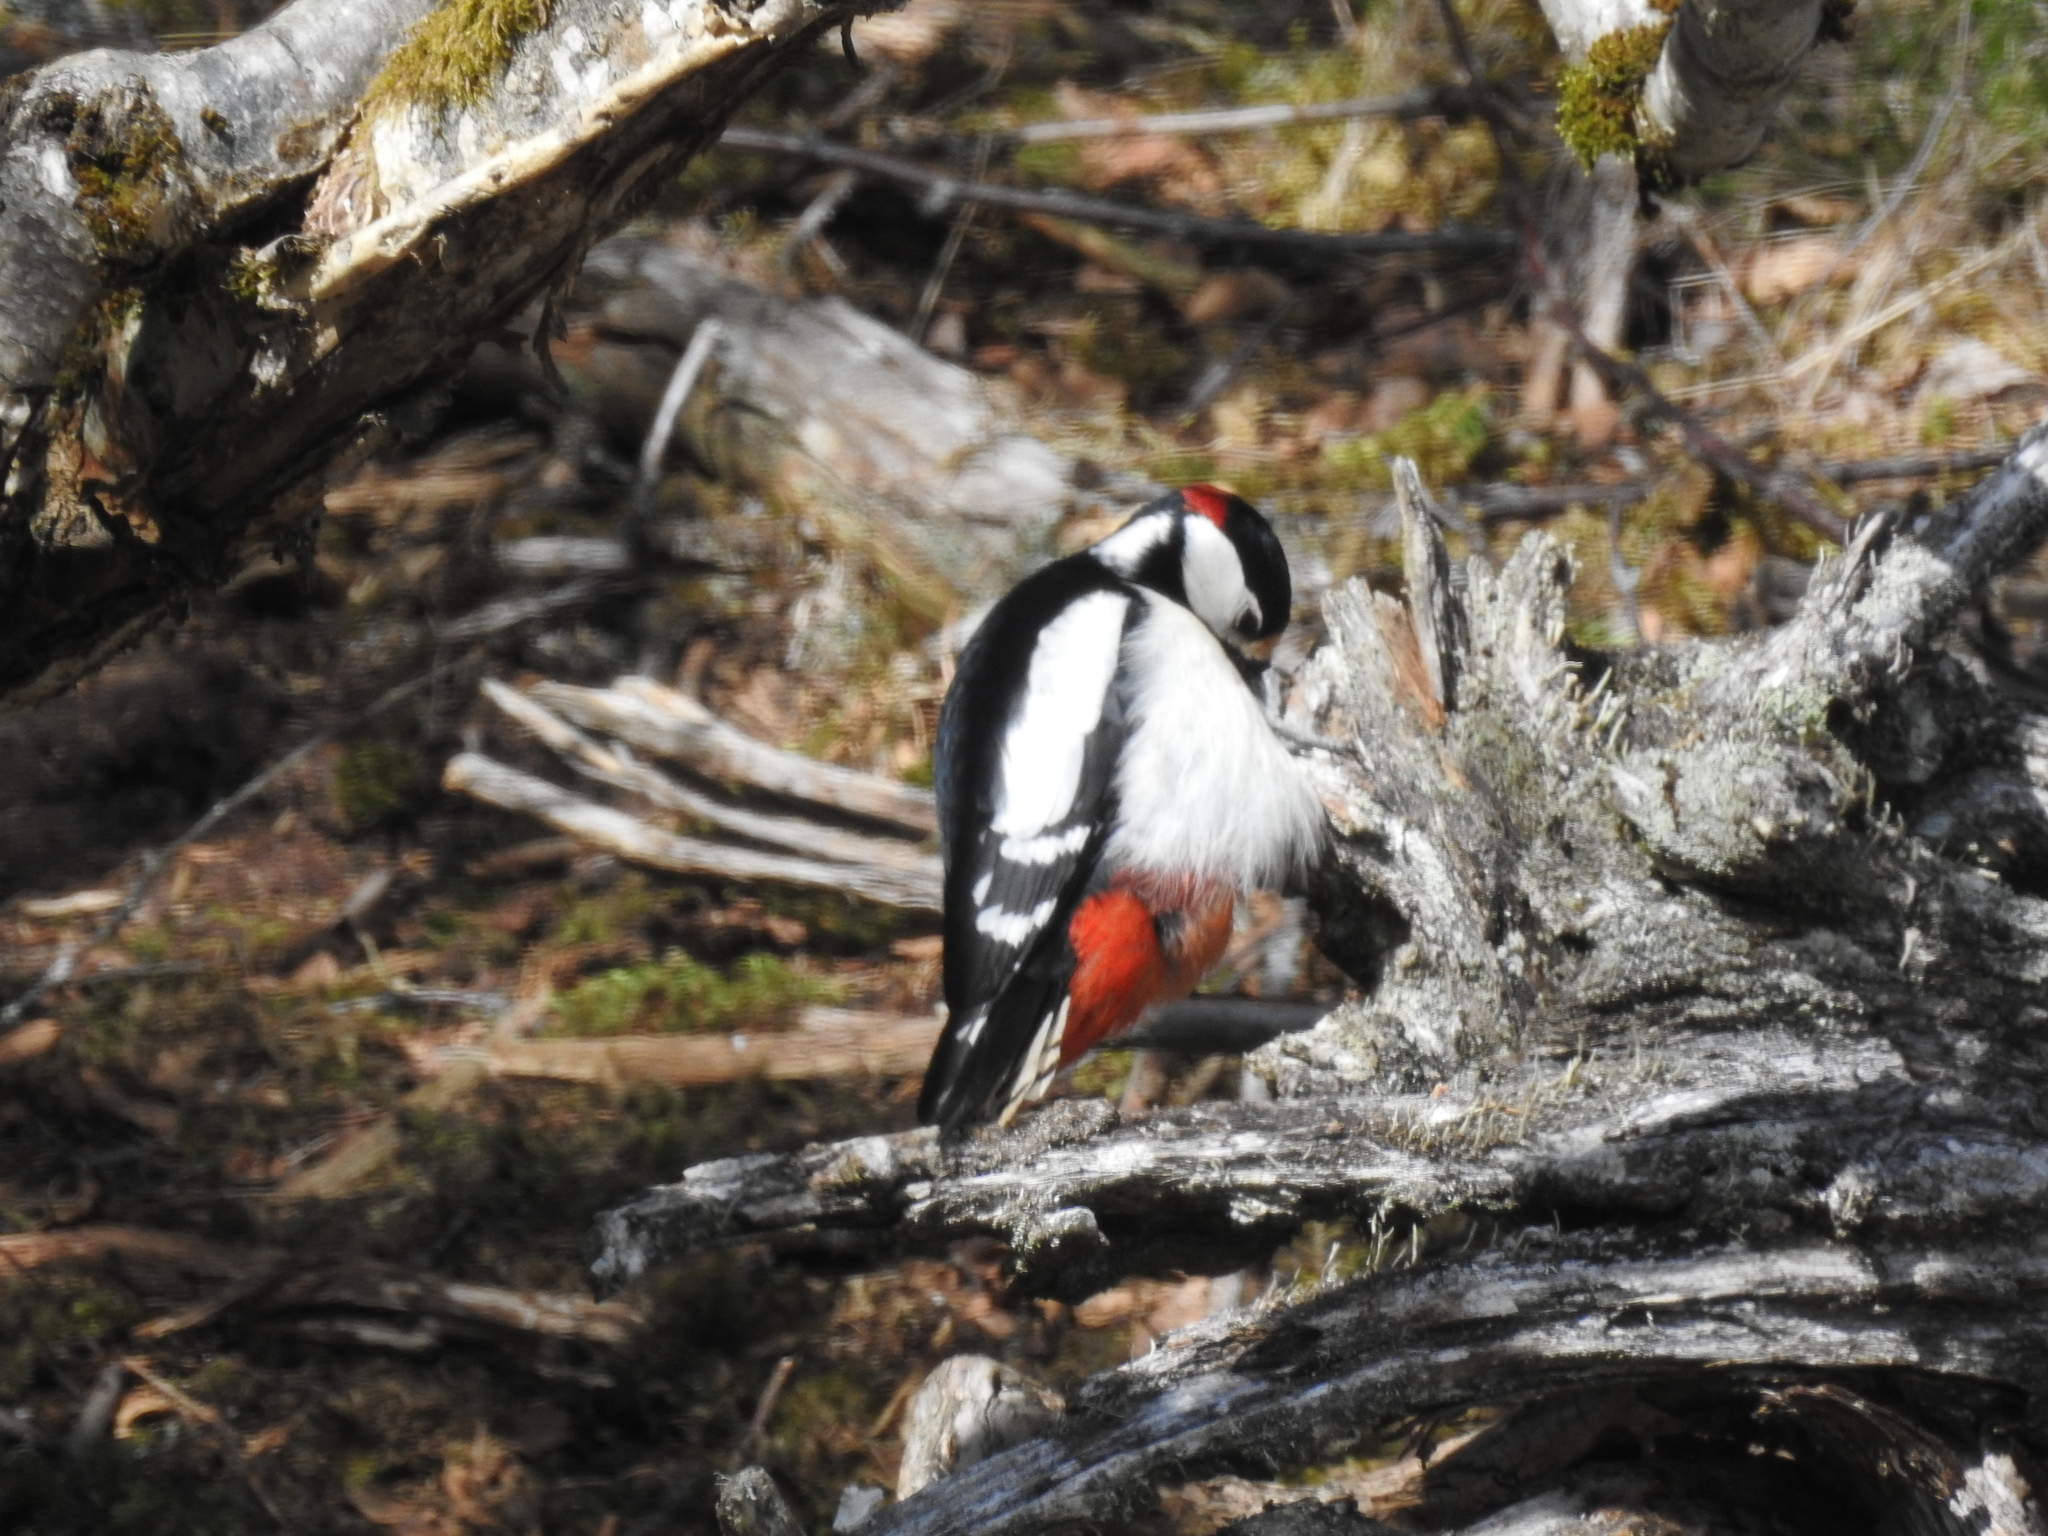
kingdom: Animalia
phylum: Chordata
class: Aves
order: Piciformes
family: Picidae
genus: Dendrocopos
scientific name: Dendrocopos major
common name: Great spotted woodpecker
